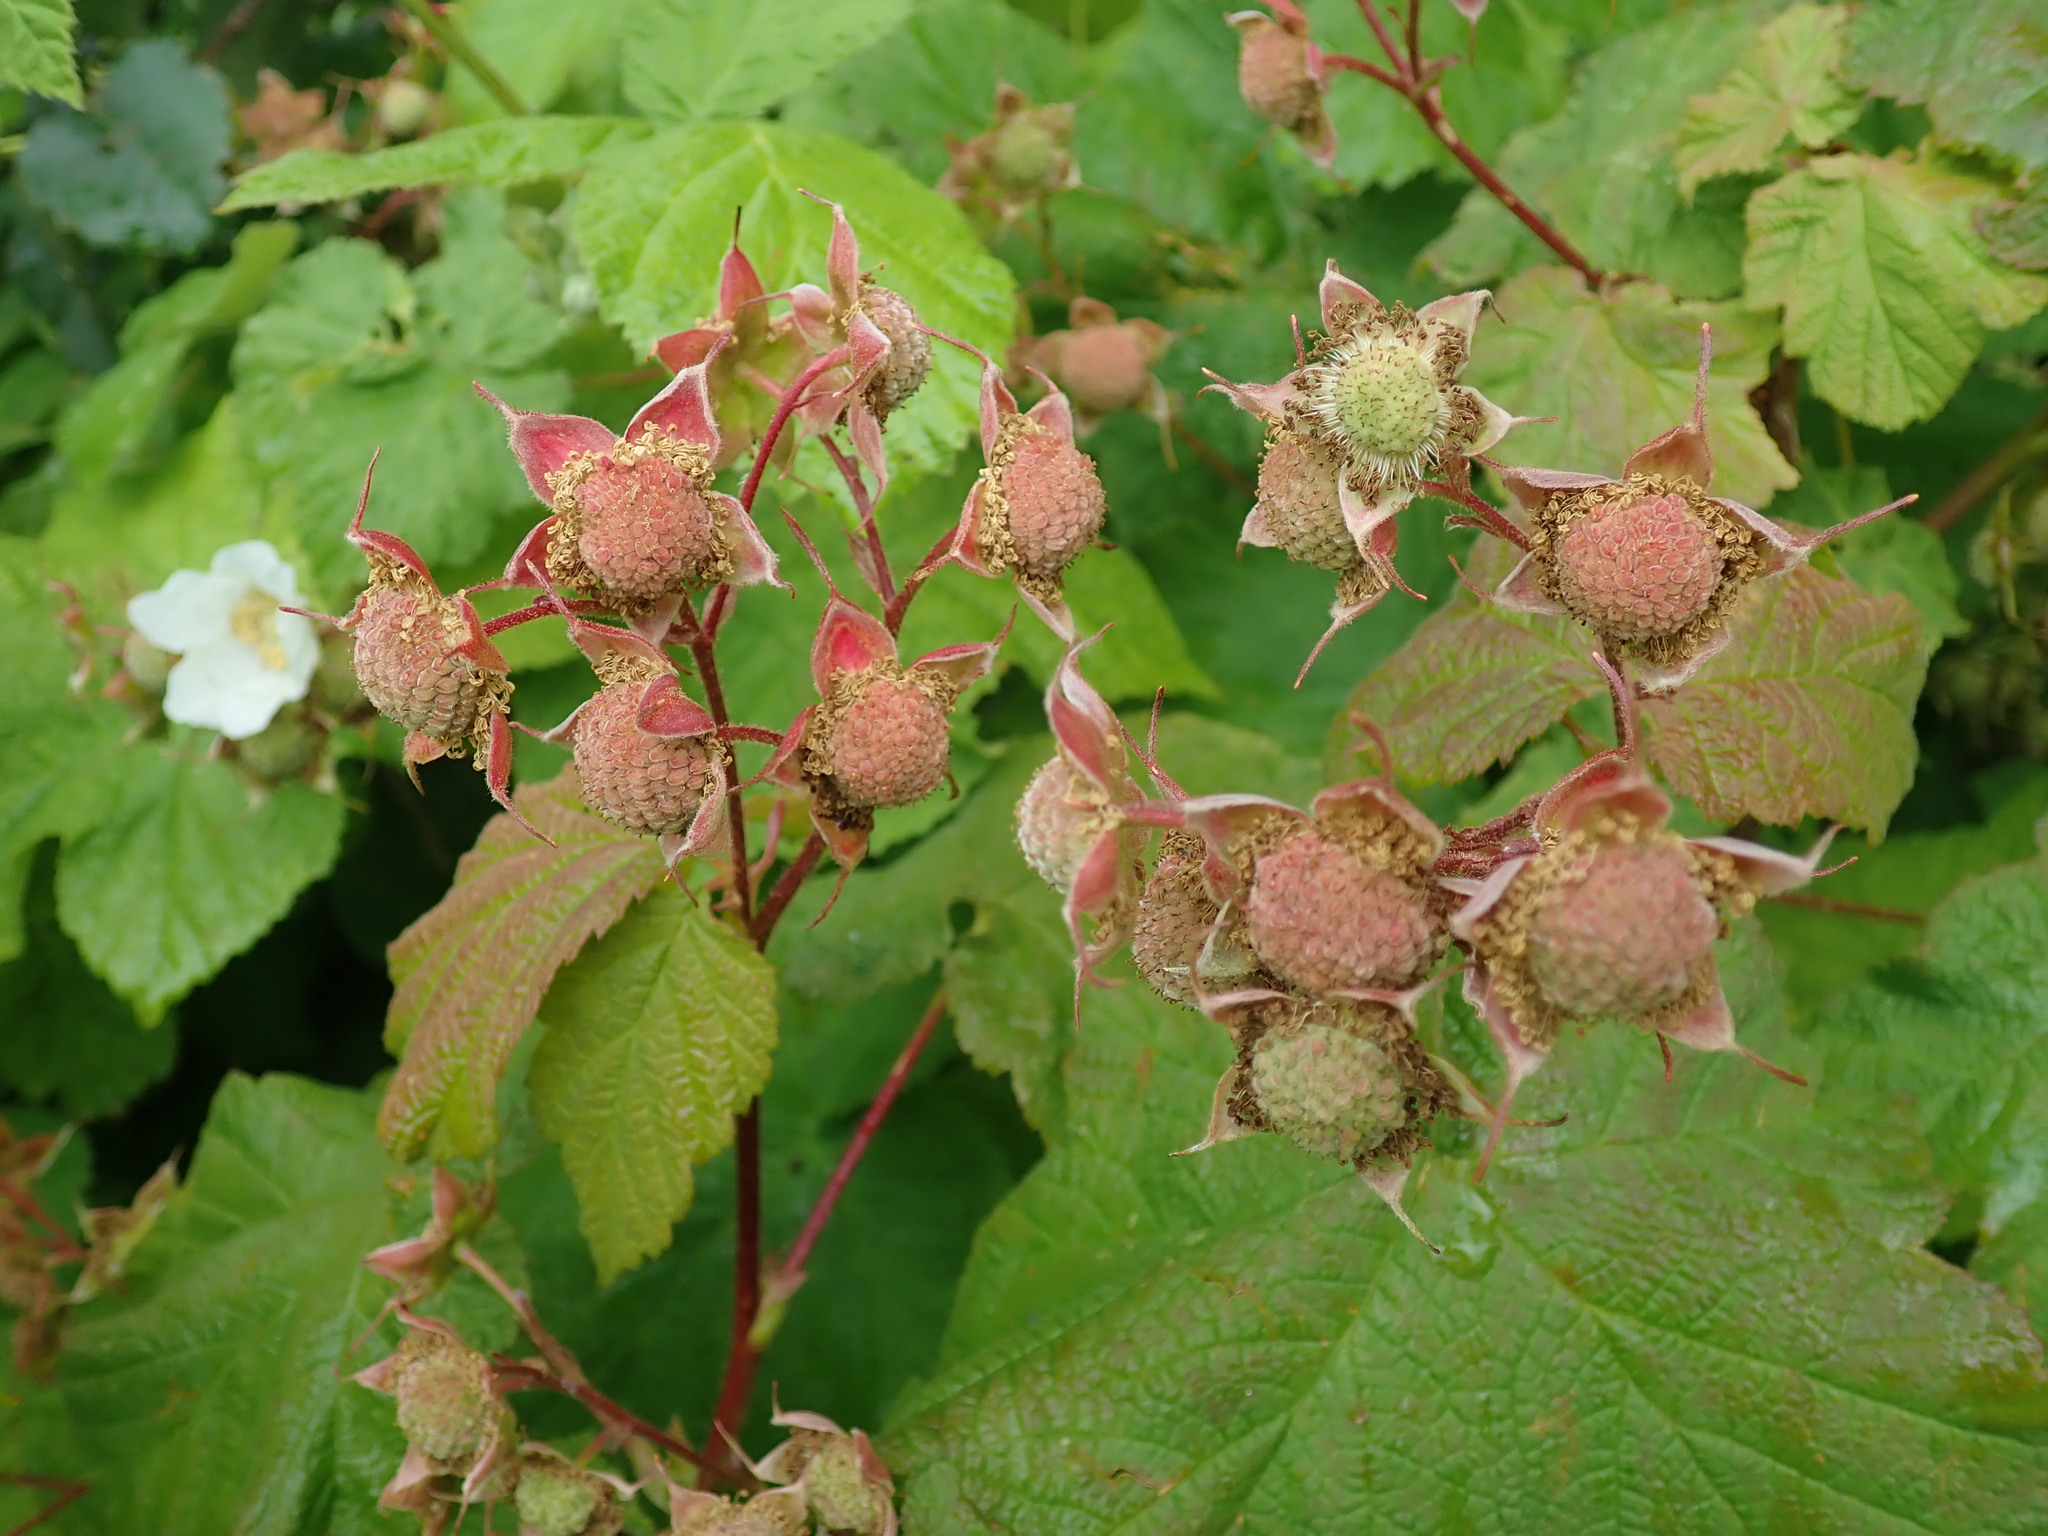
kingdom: Plantae
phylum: Tracheophyta
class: Magnoliopsida
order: Rosales
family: Rosaceae
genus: Rubus
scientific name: Rubus parviflorus
